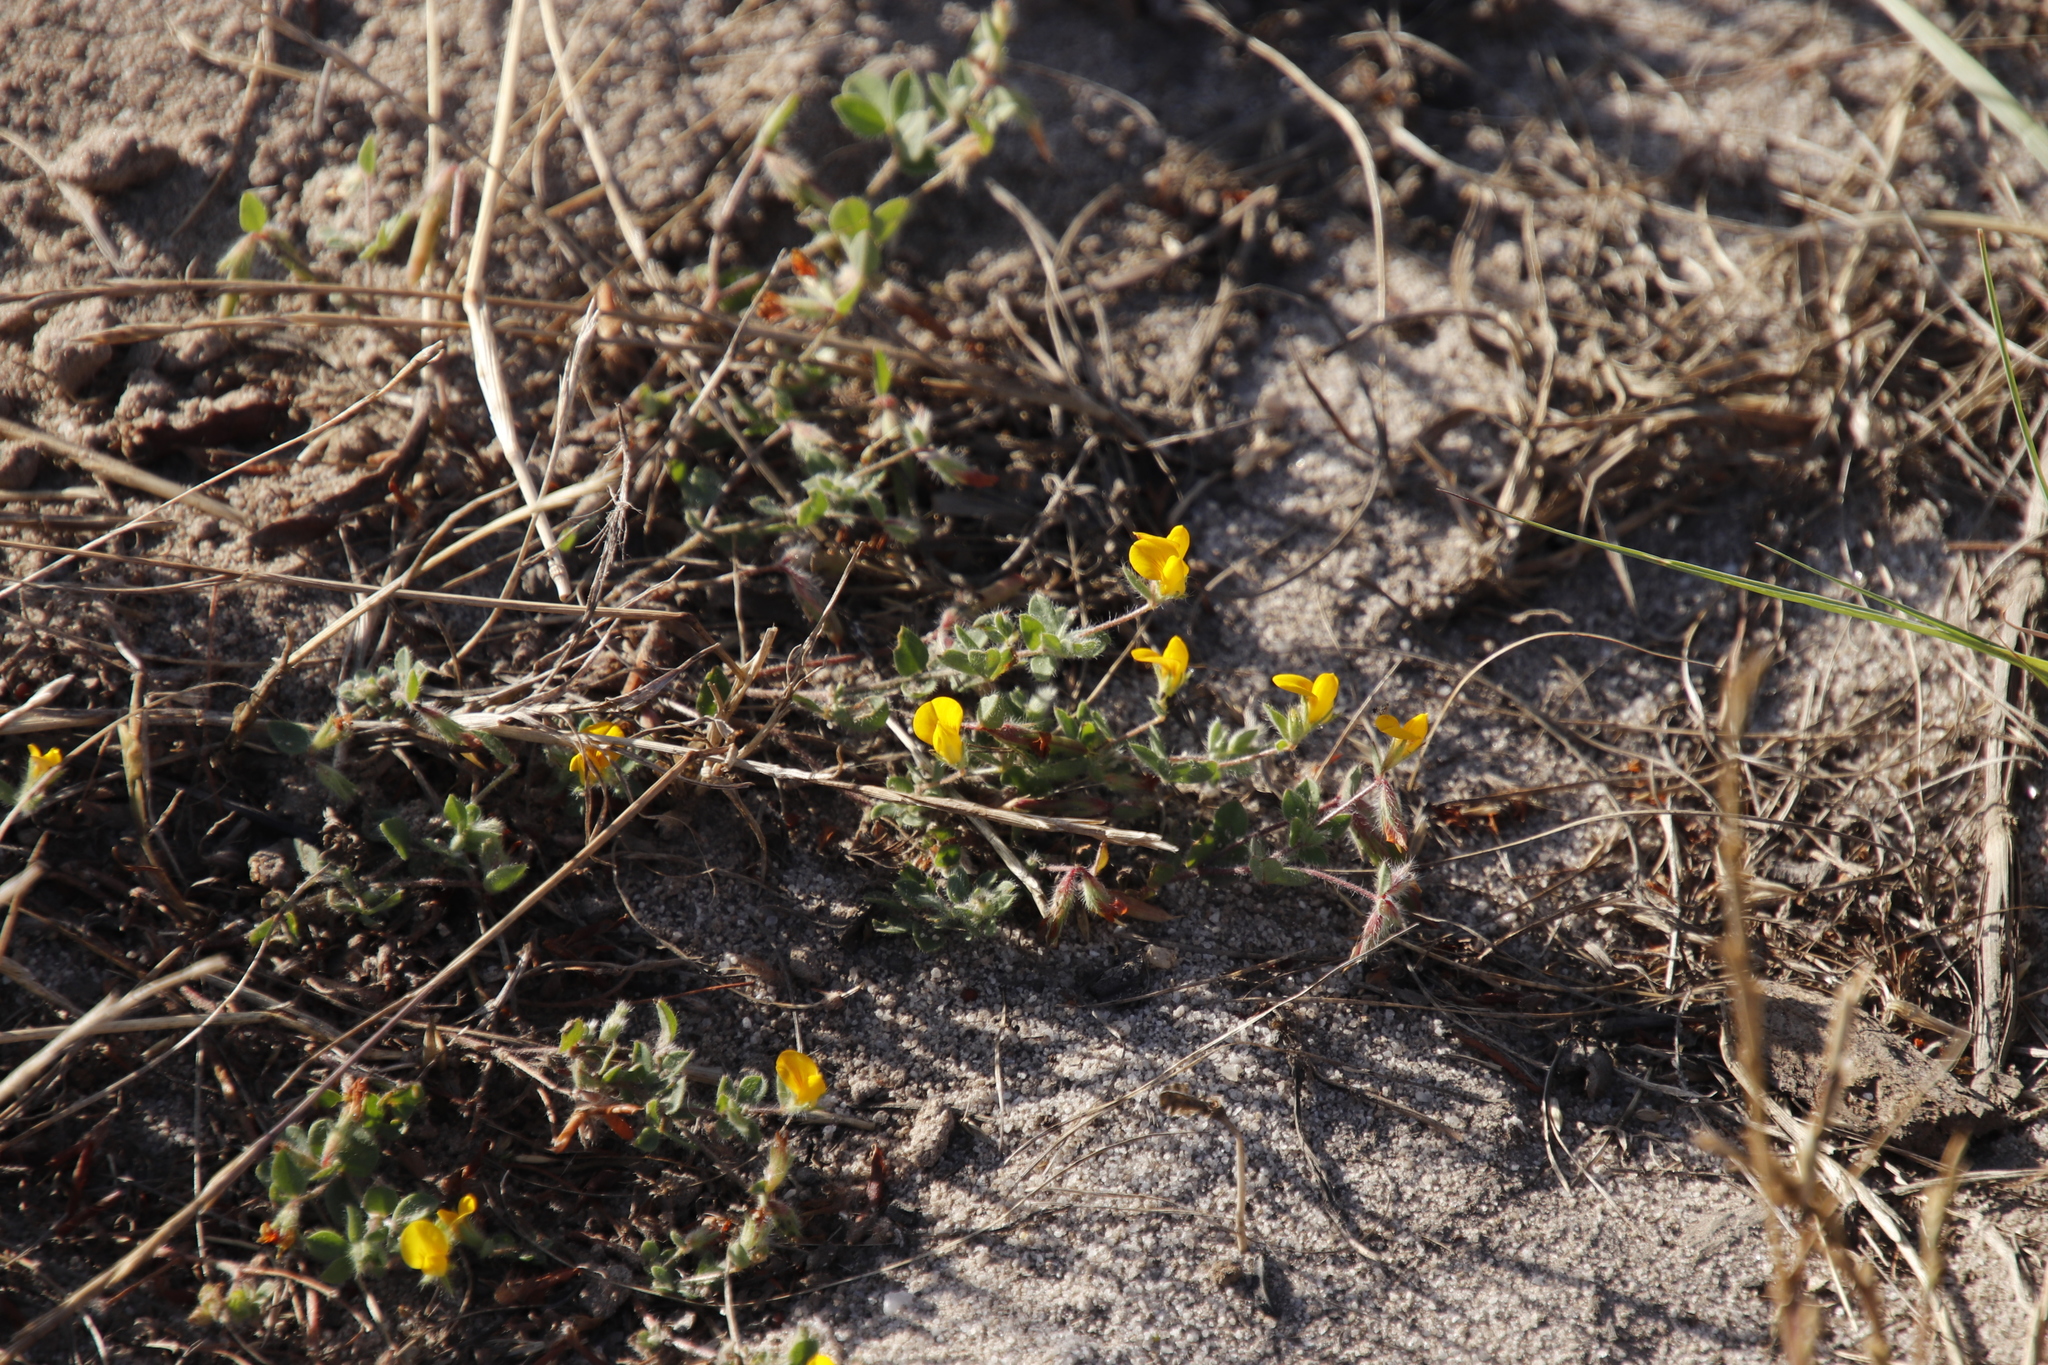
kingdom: Plantae
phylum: Tracheophyta
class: Magnoliopsida
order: Fabales
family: Fabaceae
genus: Lotus
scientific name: Lotus subbiflorus
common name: Hairy bird's-foot trefoil
